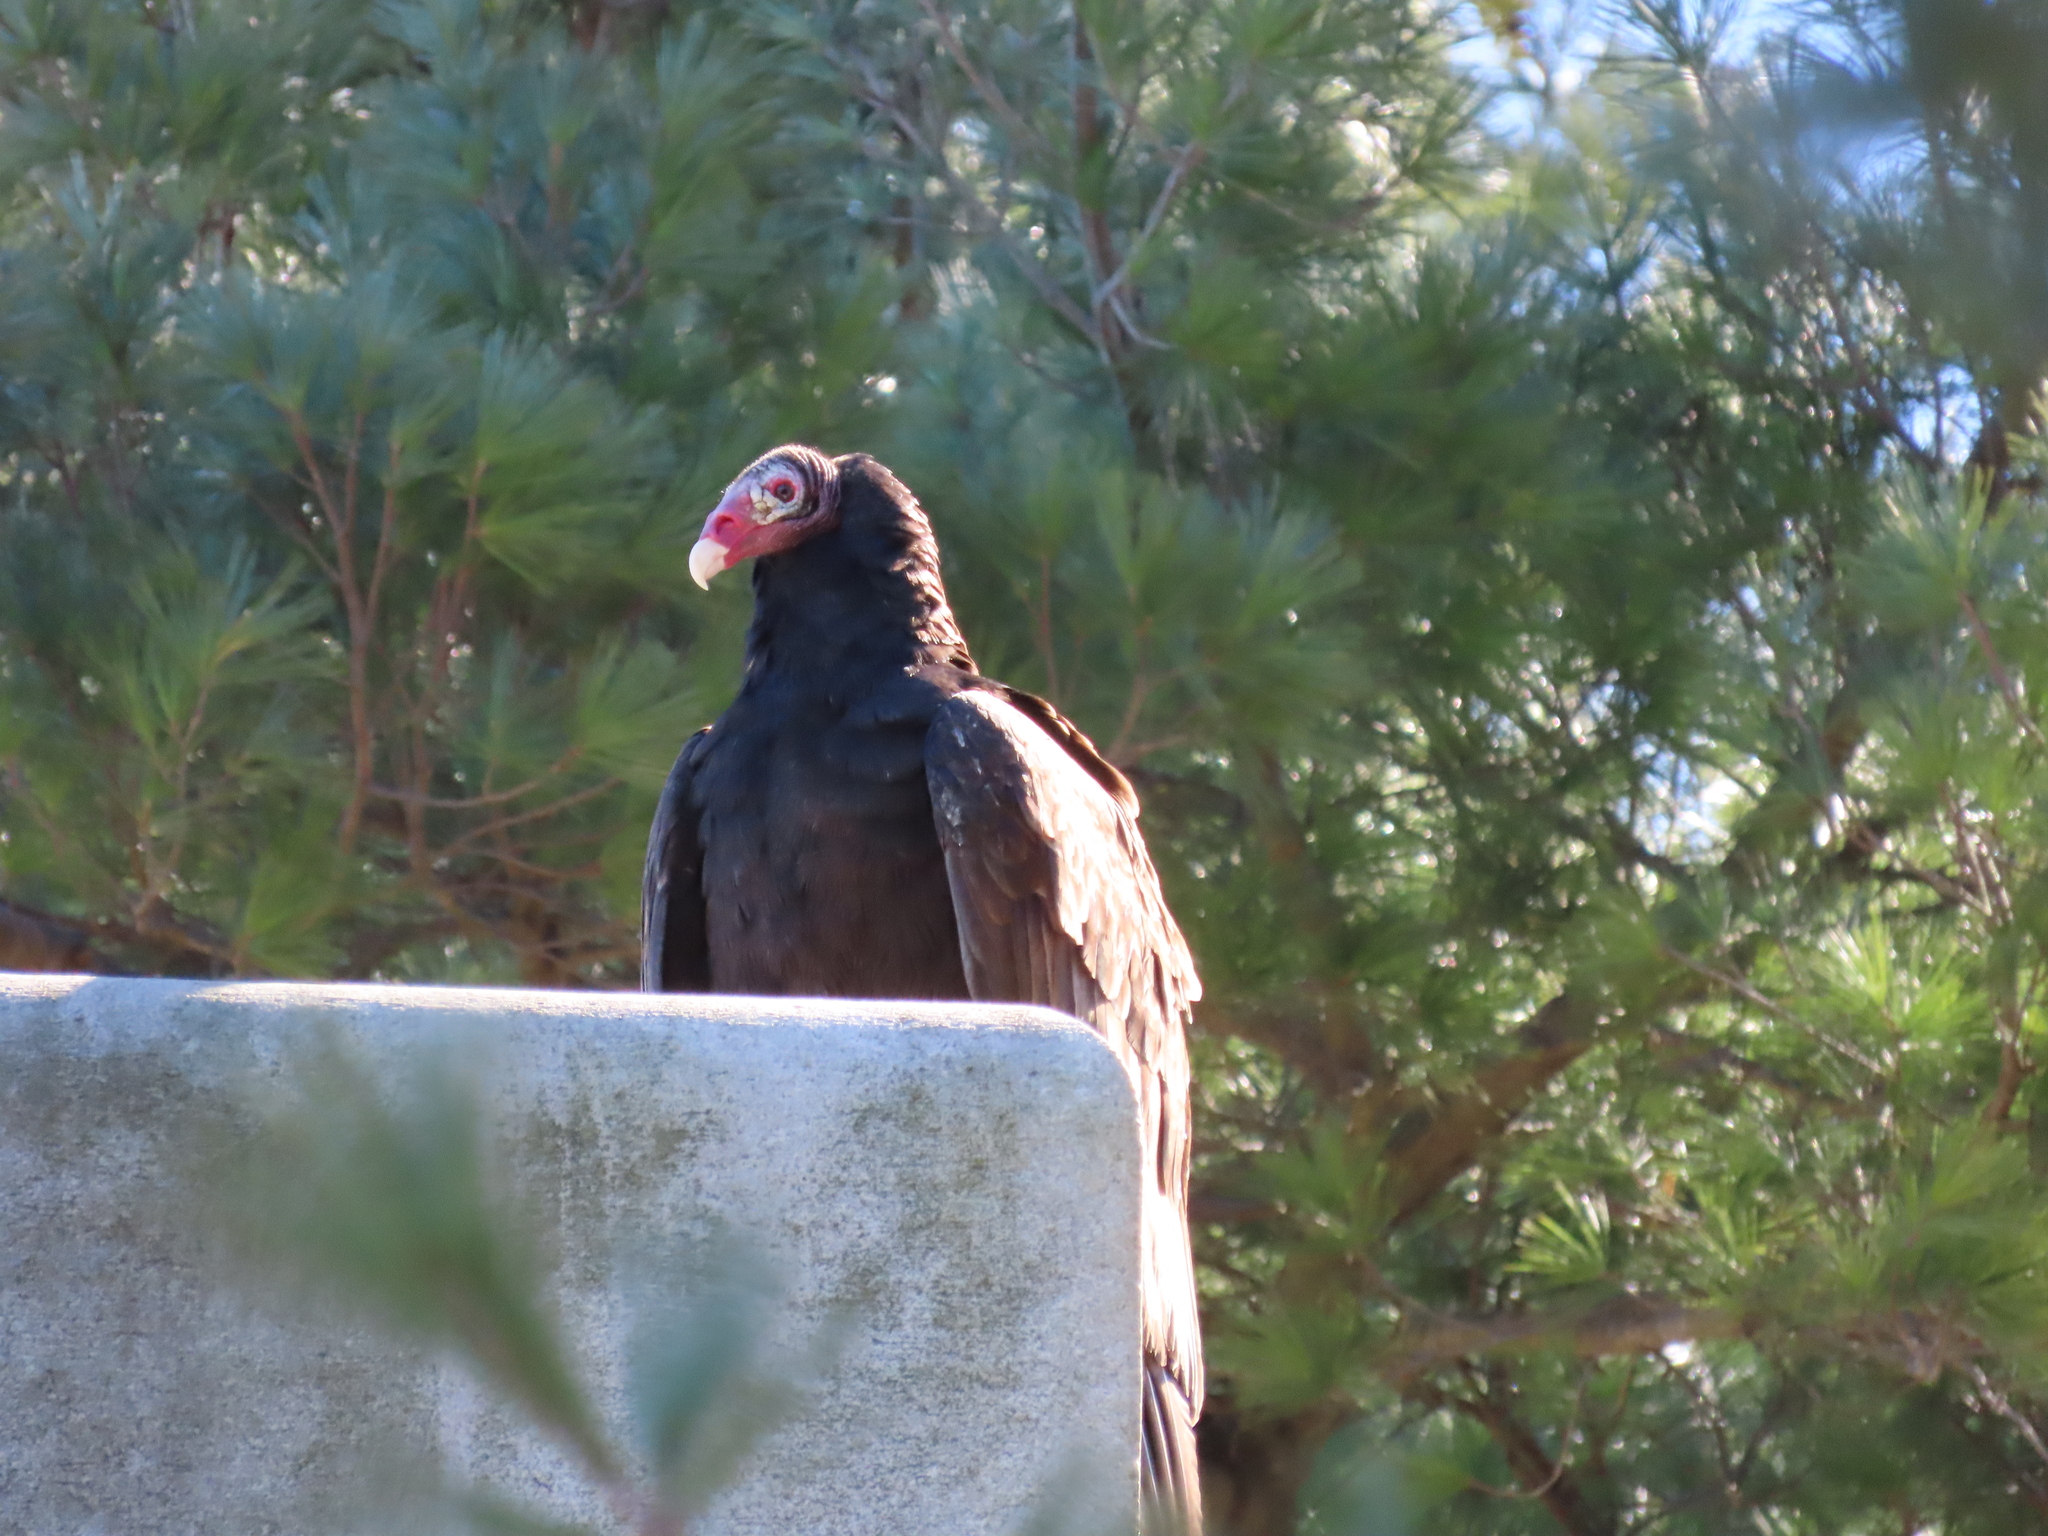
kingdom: Animalia
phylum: Chordata
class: Aves
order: Accipitriformes
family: Cathartidae
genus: Cathartes
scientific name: Cathartes aura
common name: Turkey vulture
